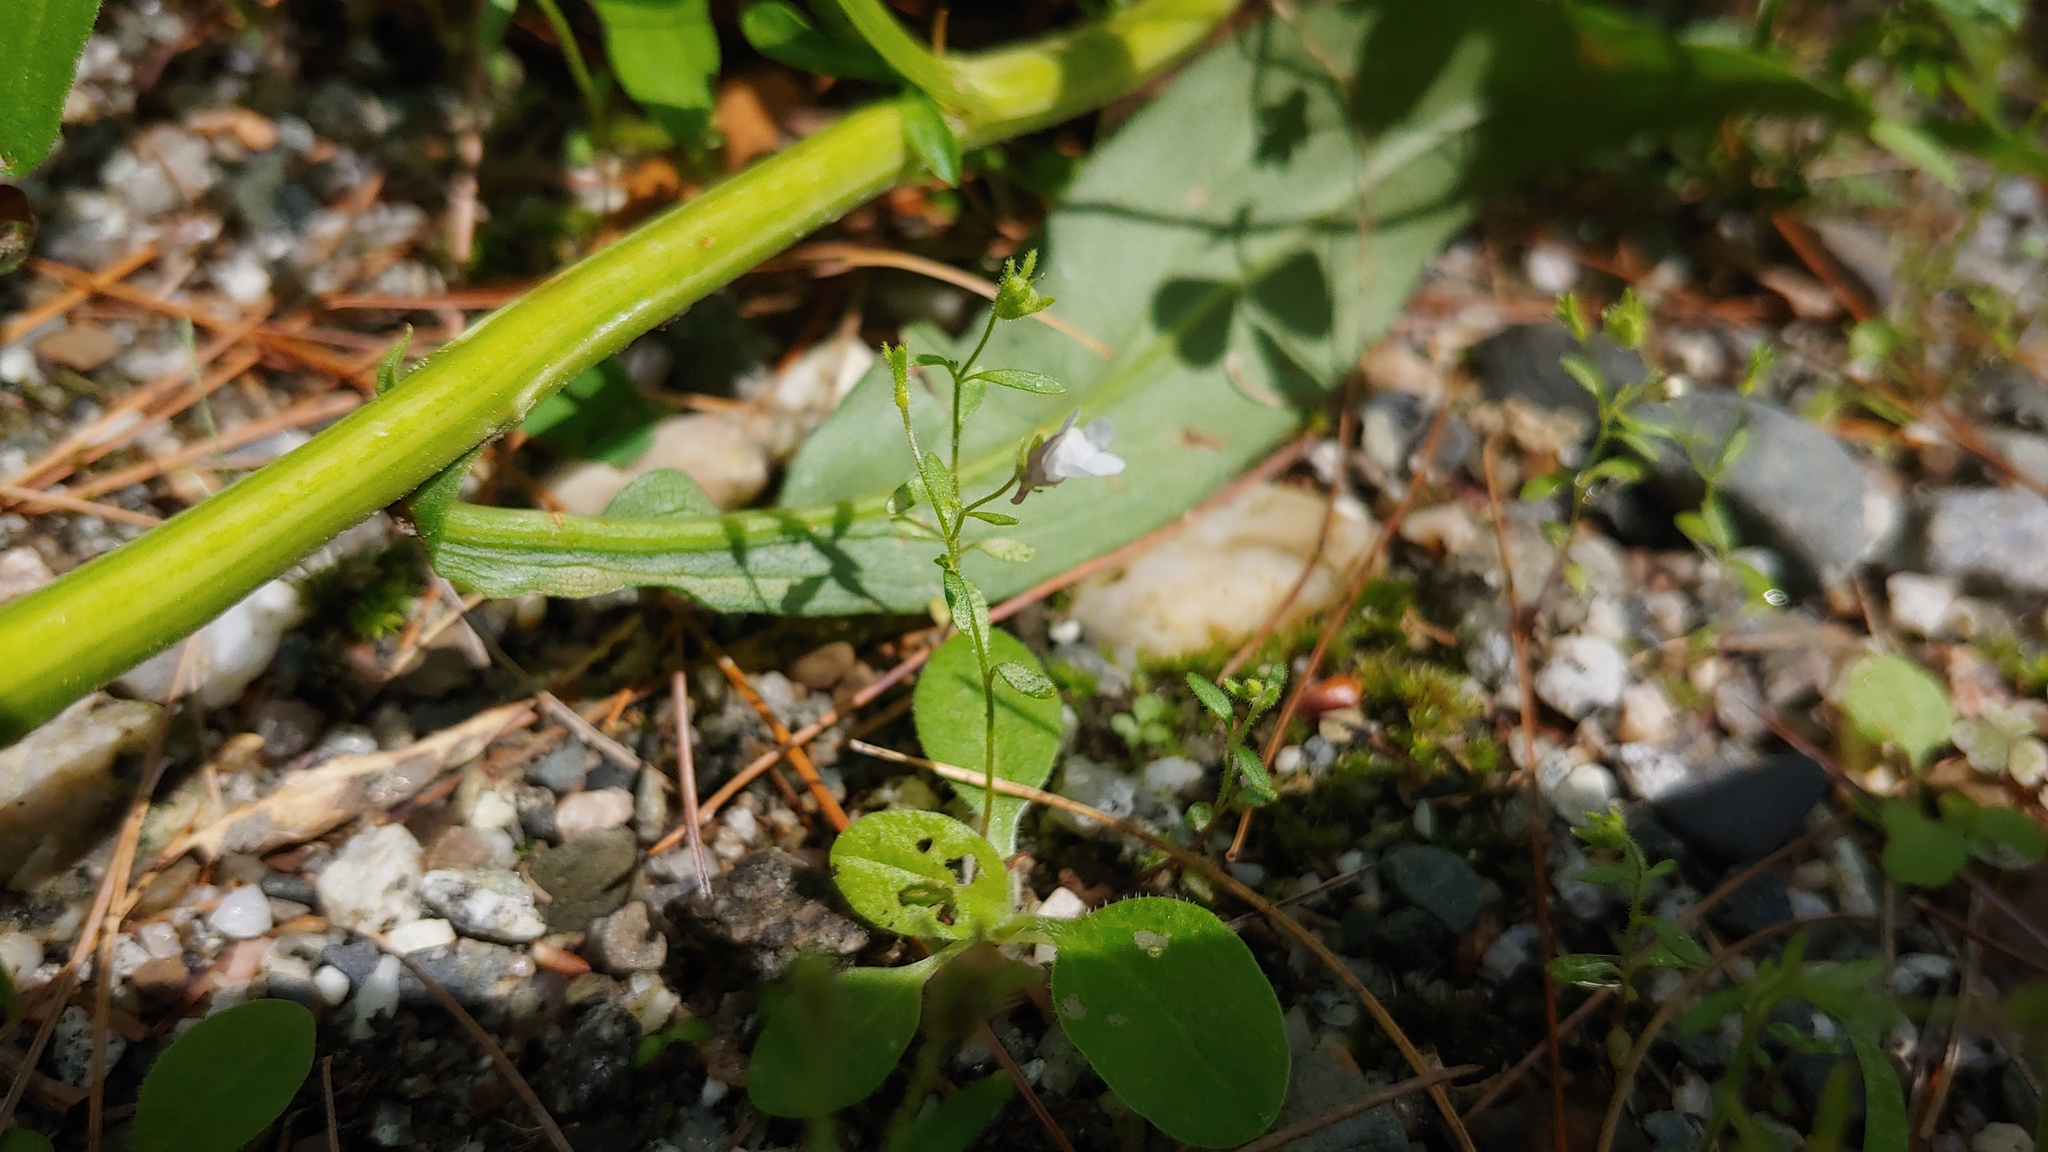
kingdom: Plantae
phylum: Tracheophyta
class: Magnoliopsida
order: Lamiales
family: Plantaginaceae
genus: Chaenorhinum
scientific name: Chaenorhinum minus
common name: Dwarf snapdragon
